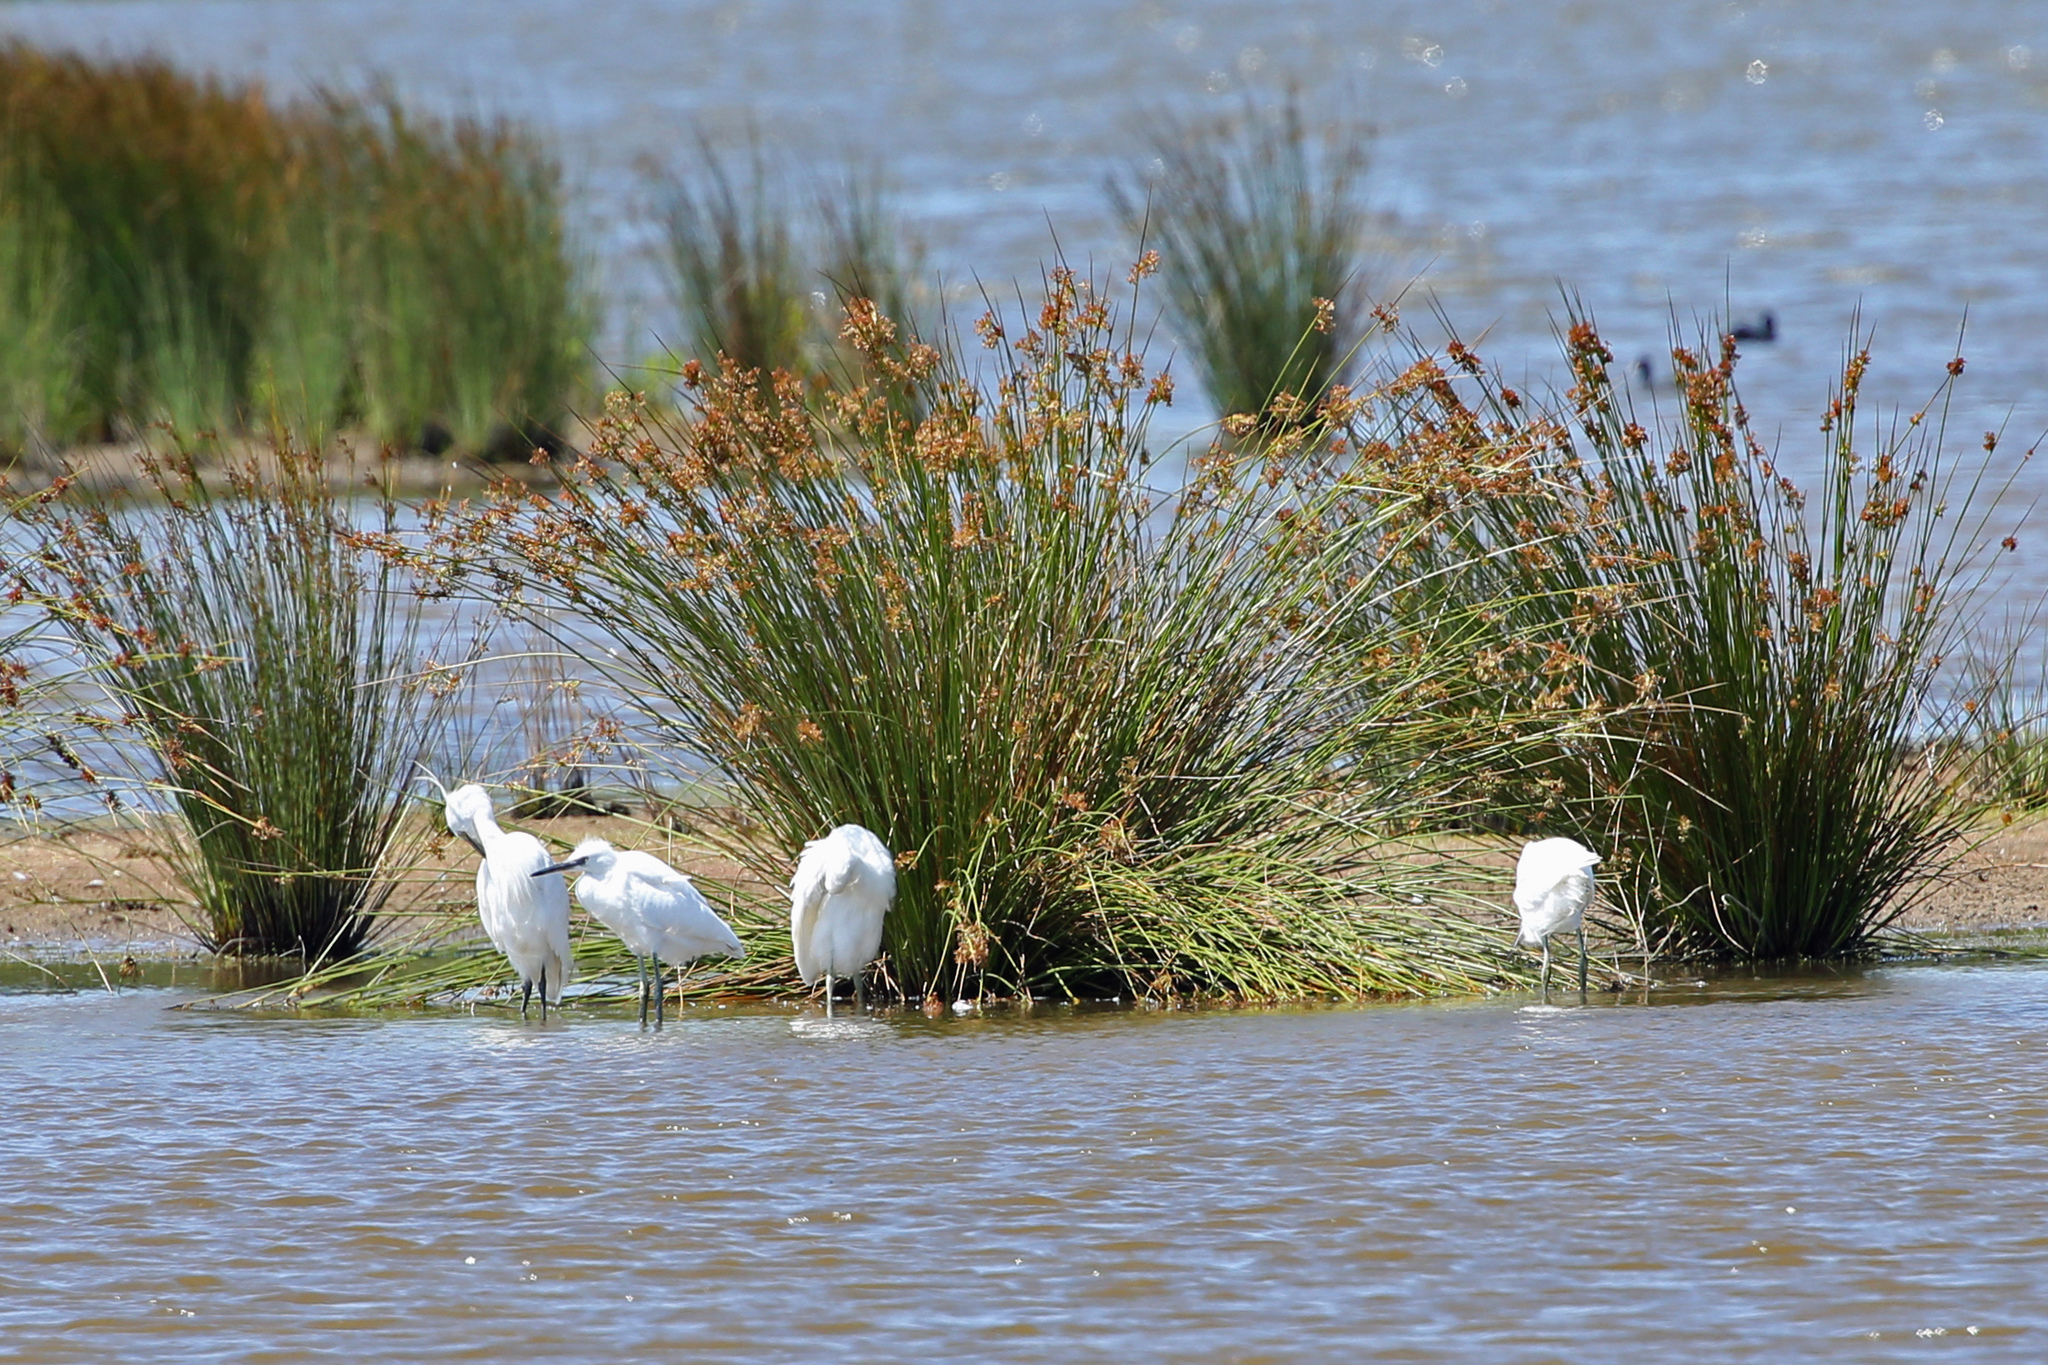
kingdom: Animalia
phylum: Chordata
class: Aves
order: Pelecaniformes
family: Ardeidae
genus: Egretta
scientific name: Egretta garzetta
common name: Little egret
